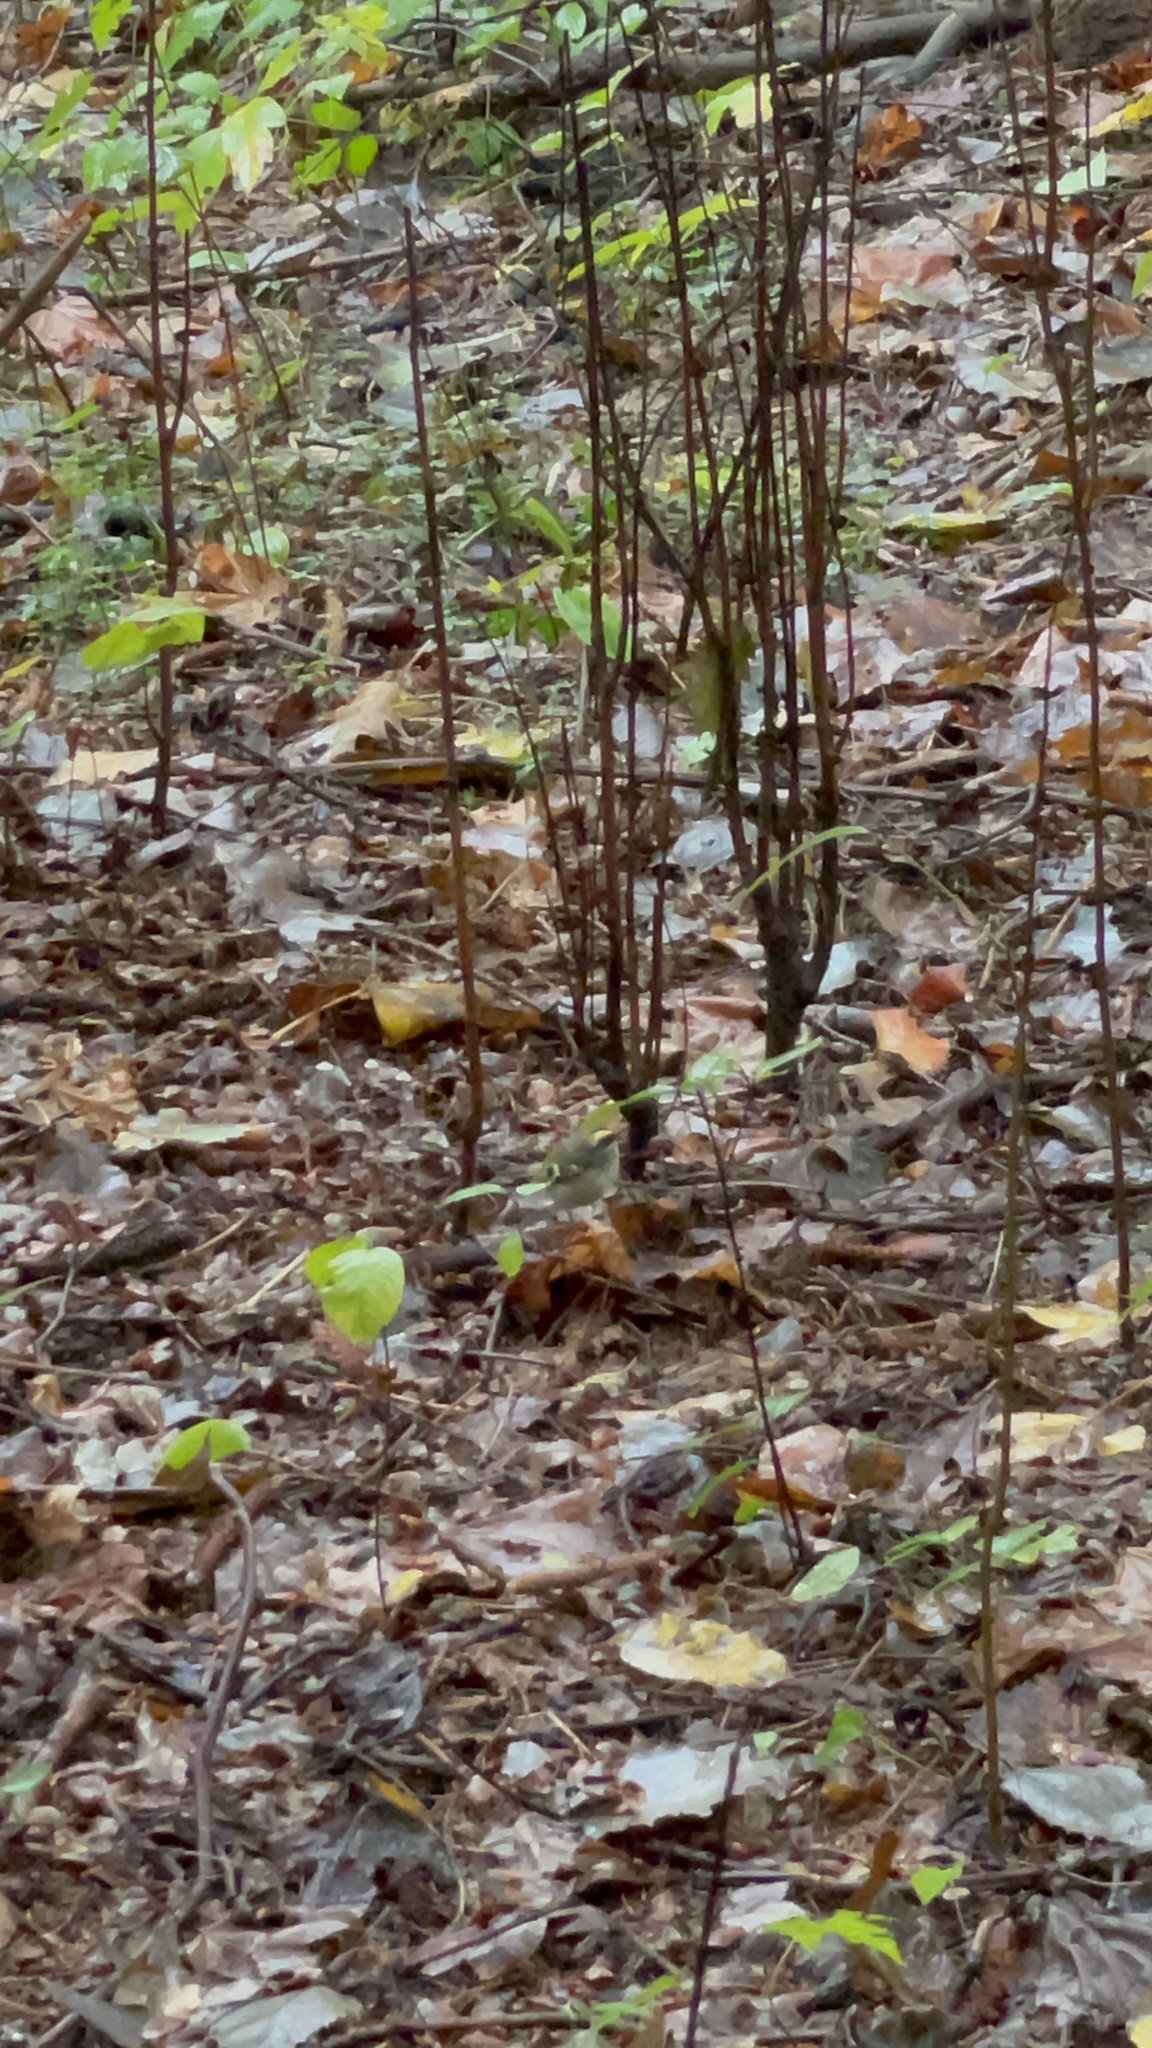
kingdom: Animalia
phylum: Chordata
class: Aves
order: Passeriformes
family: Regulidae
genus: Regulus
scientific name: Regulus satrapa
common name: Golden-crowned kinglet
